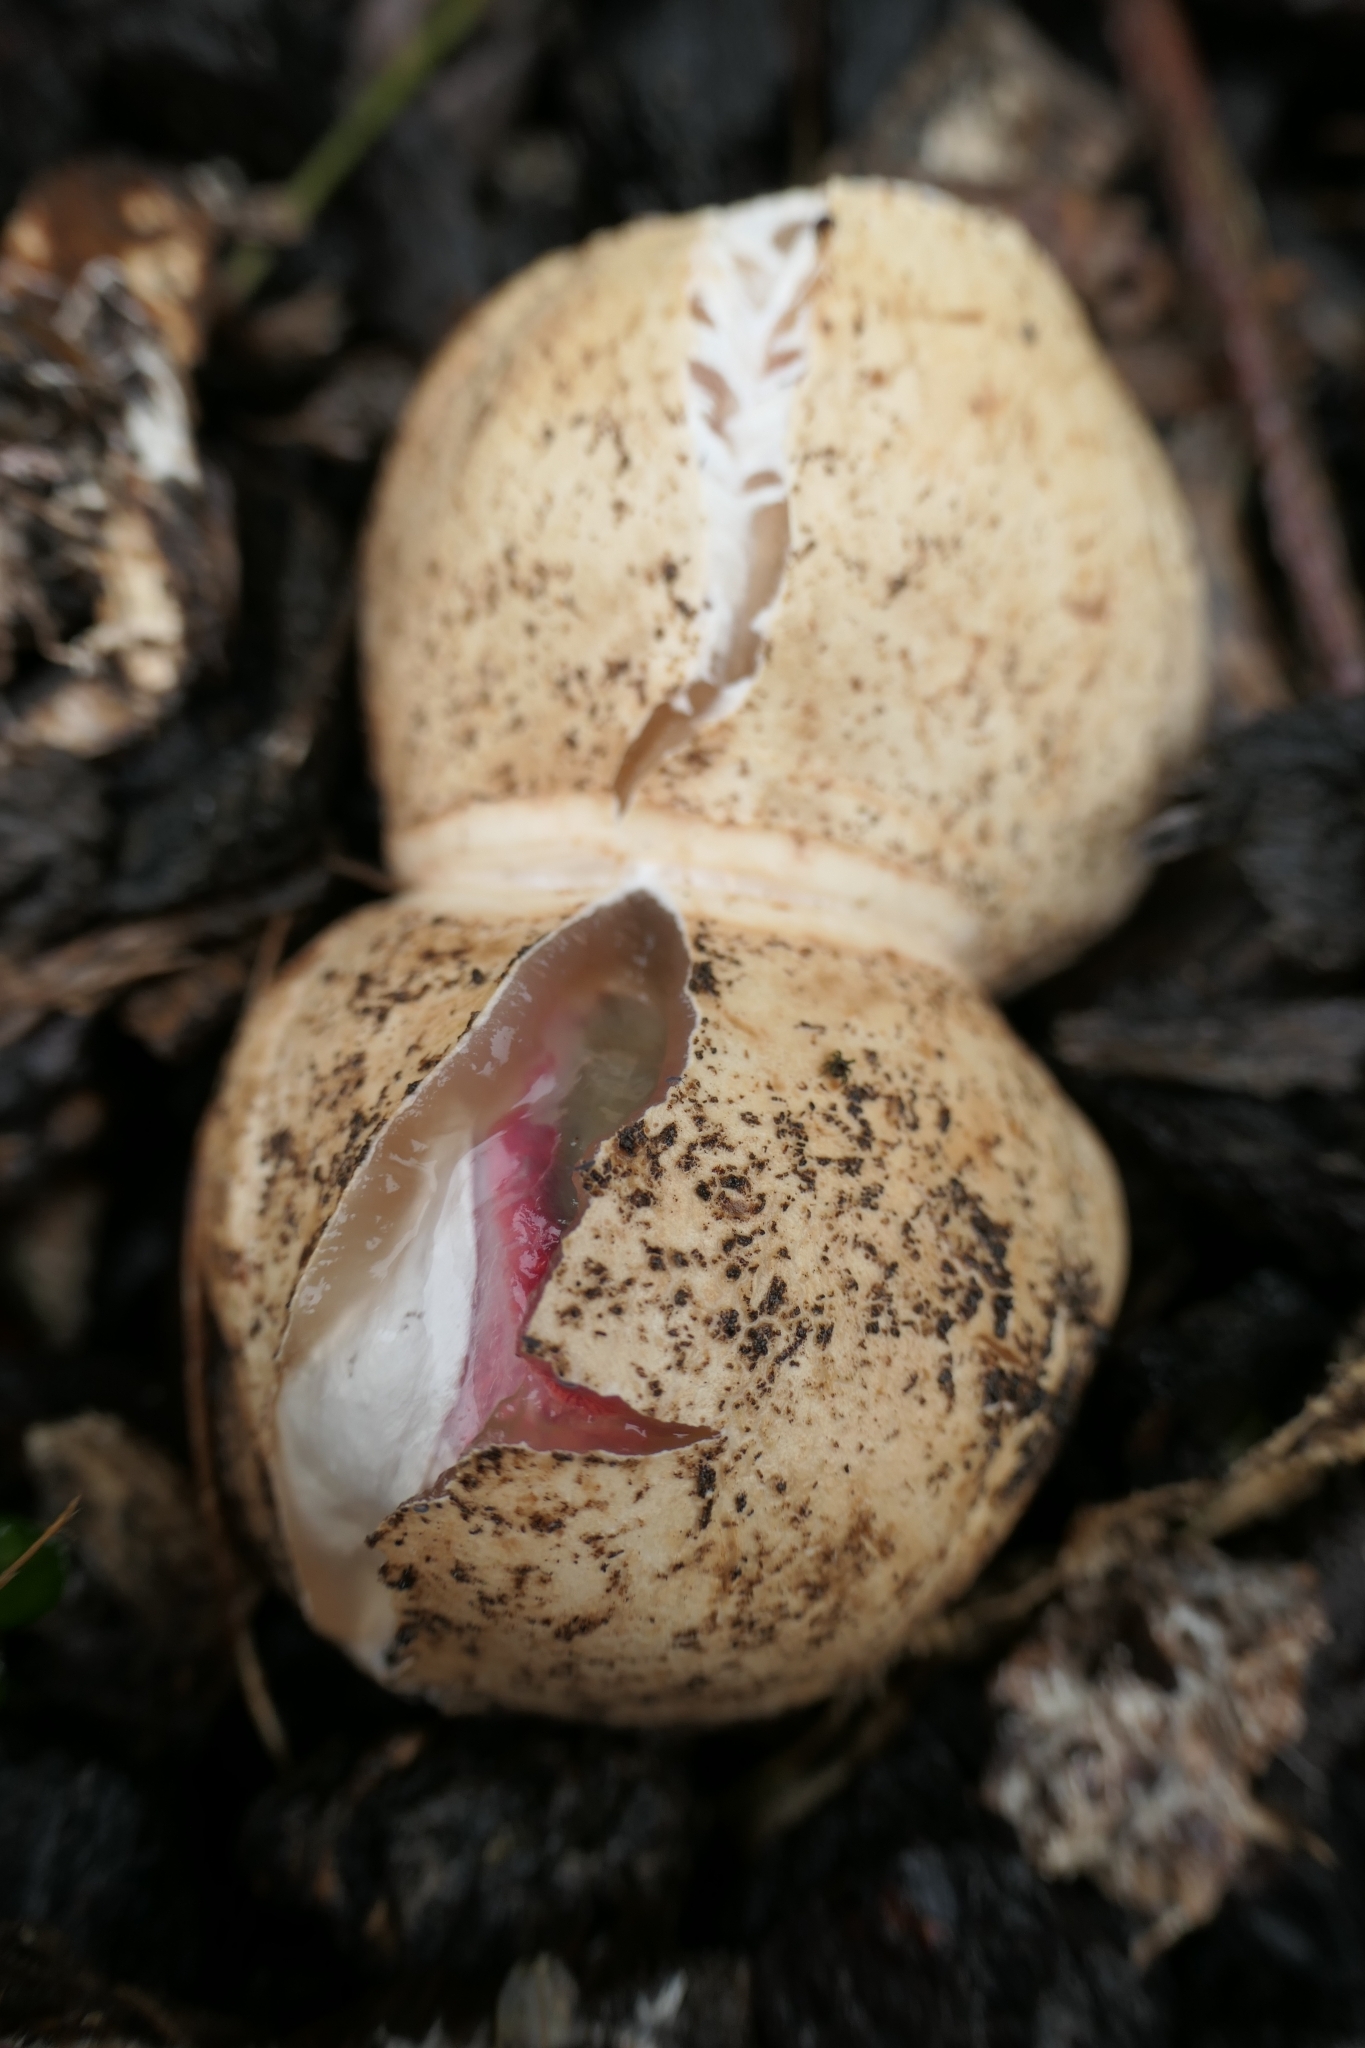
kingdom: Fungi
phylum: Basidiomycota
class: Agaricomycetes
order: Phallales
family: Phallaceae
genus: Clathrus
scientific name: Clathrus archeri
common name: Devil's fingers
